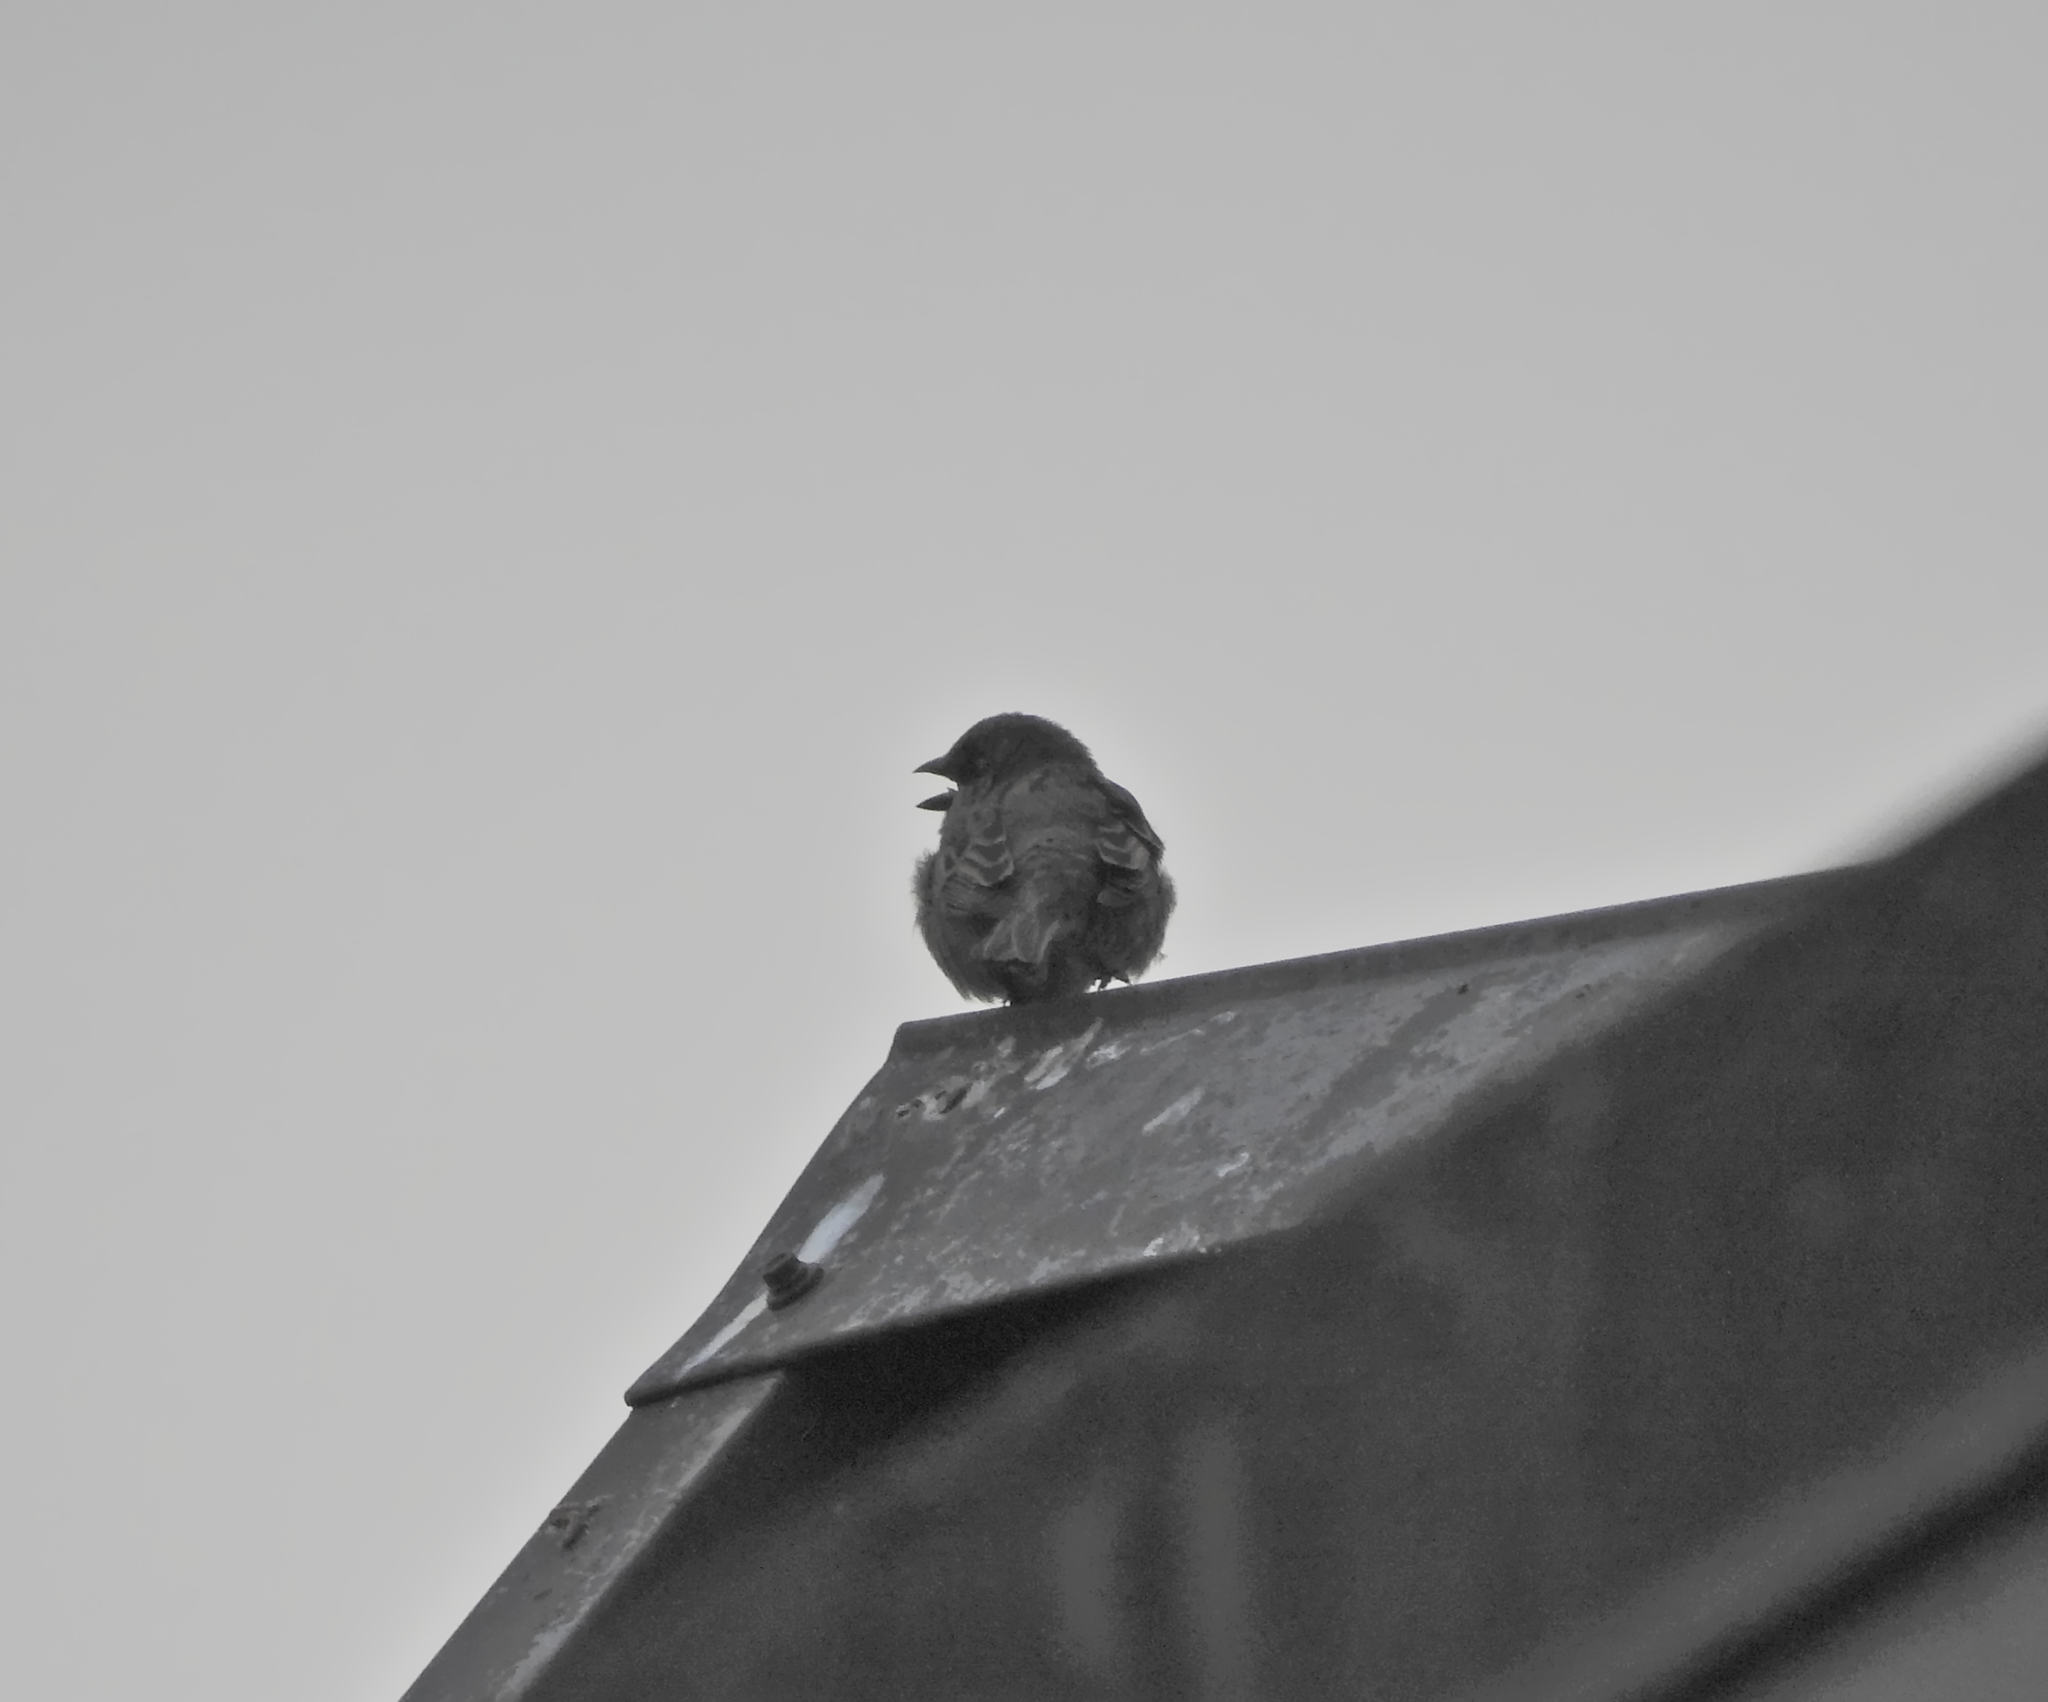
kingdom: Animalia
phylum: Chordata
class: Aves
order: Passeriformes
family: Passeridae
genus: Passer
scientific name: Passer domesticus
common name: House sparrow
